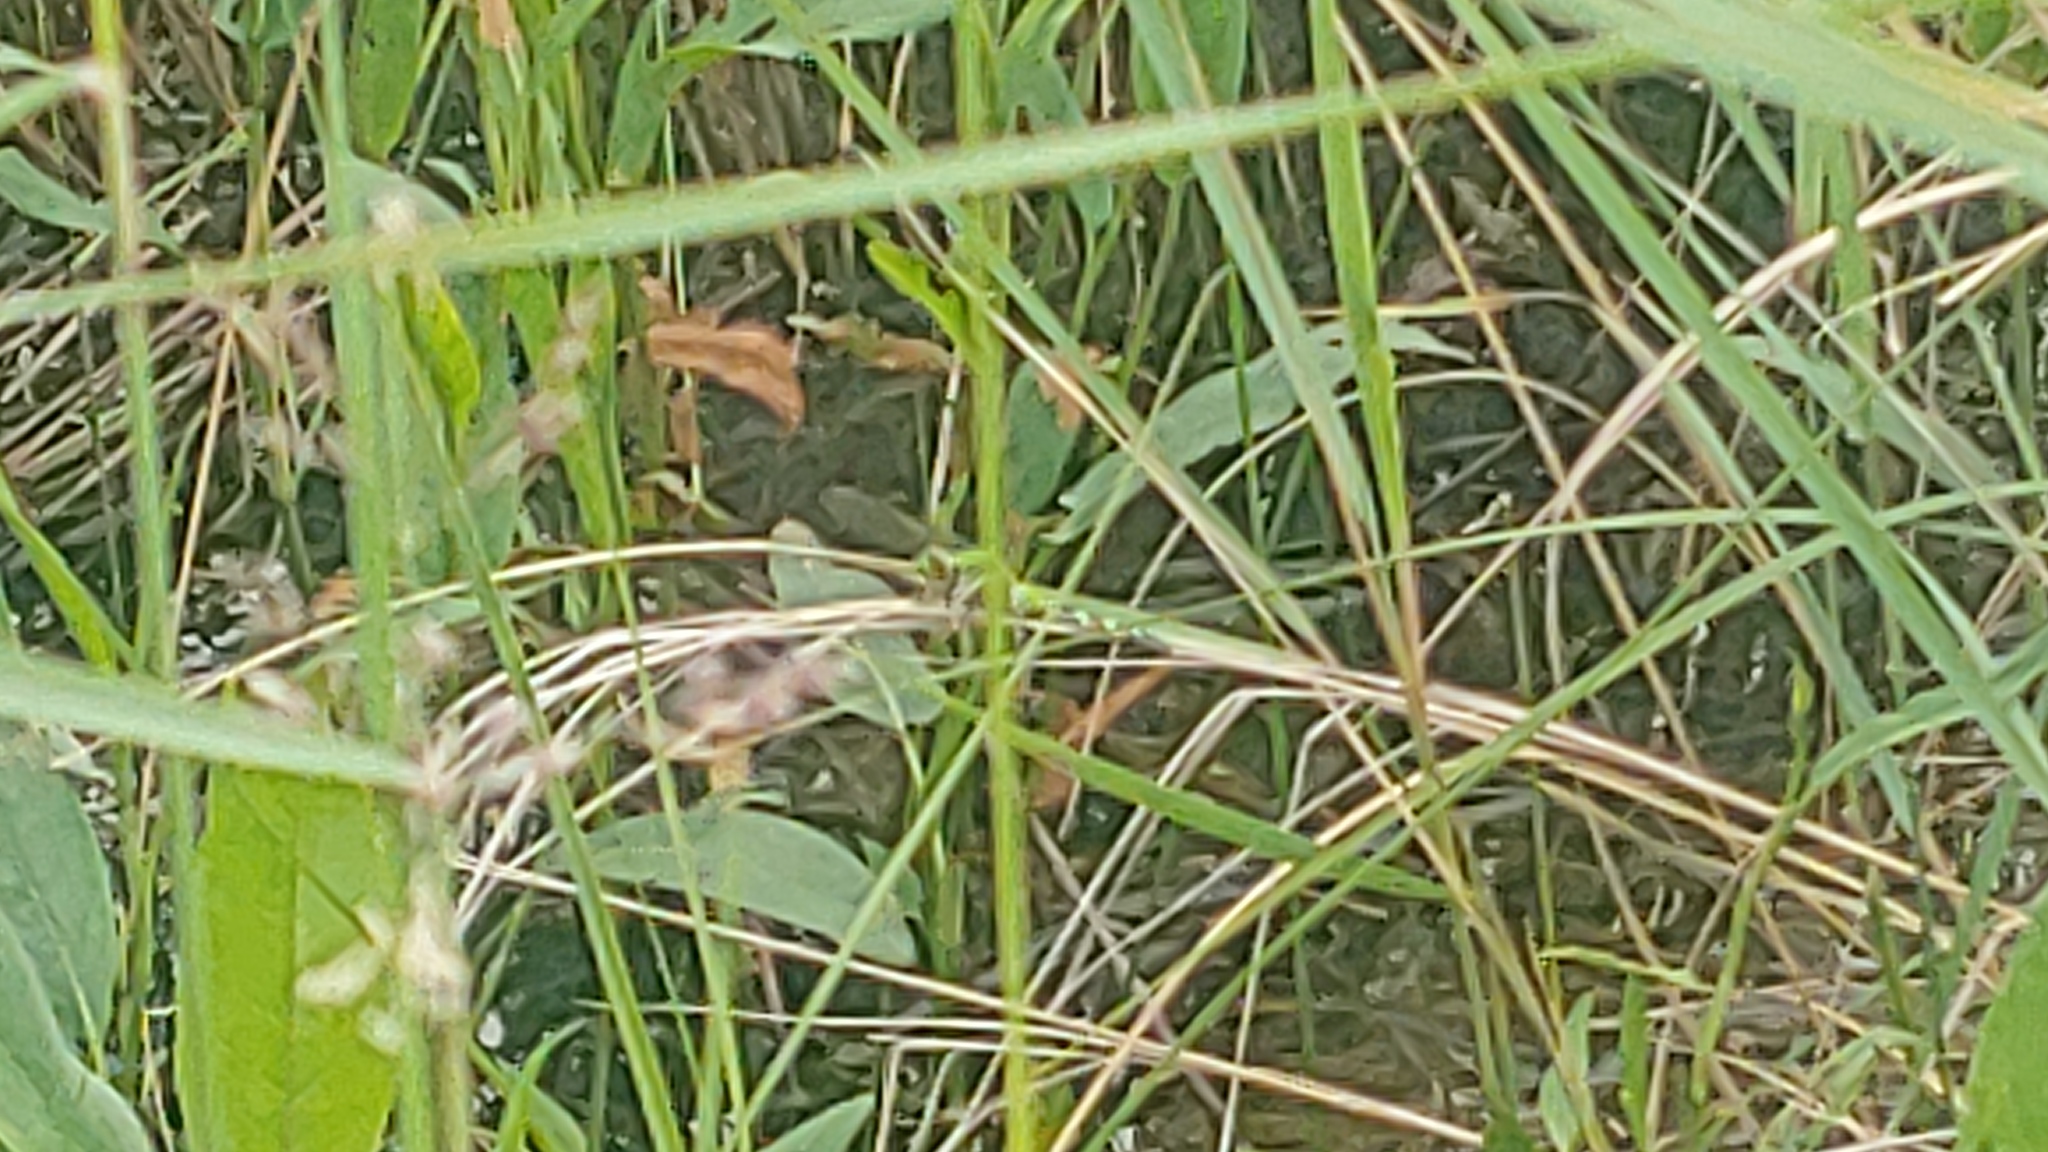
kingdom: Animalia
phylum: Arthropoda
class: Insecta
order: Odonata
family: Libellulidae
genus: Erythemis
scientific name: Erythemis simplicicollis
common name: Eastern pondhawk
